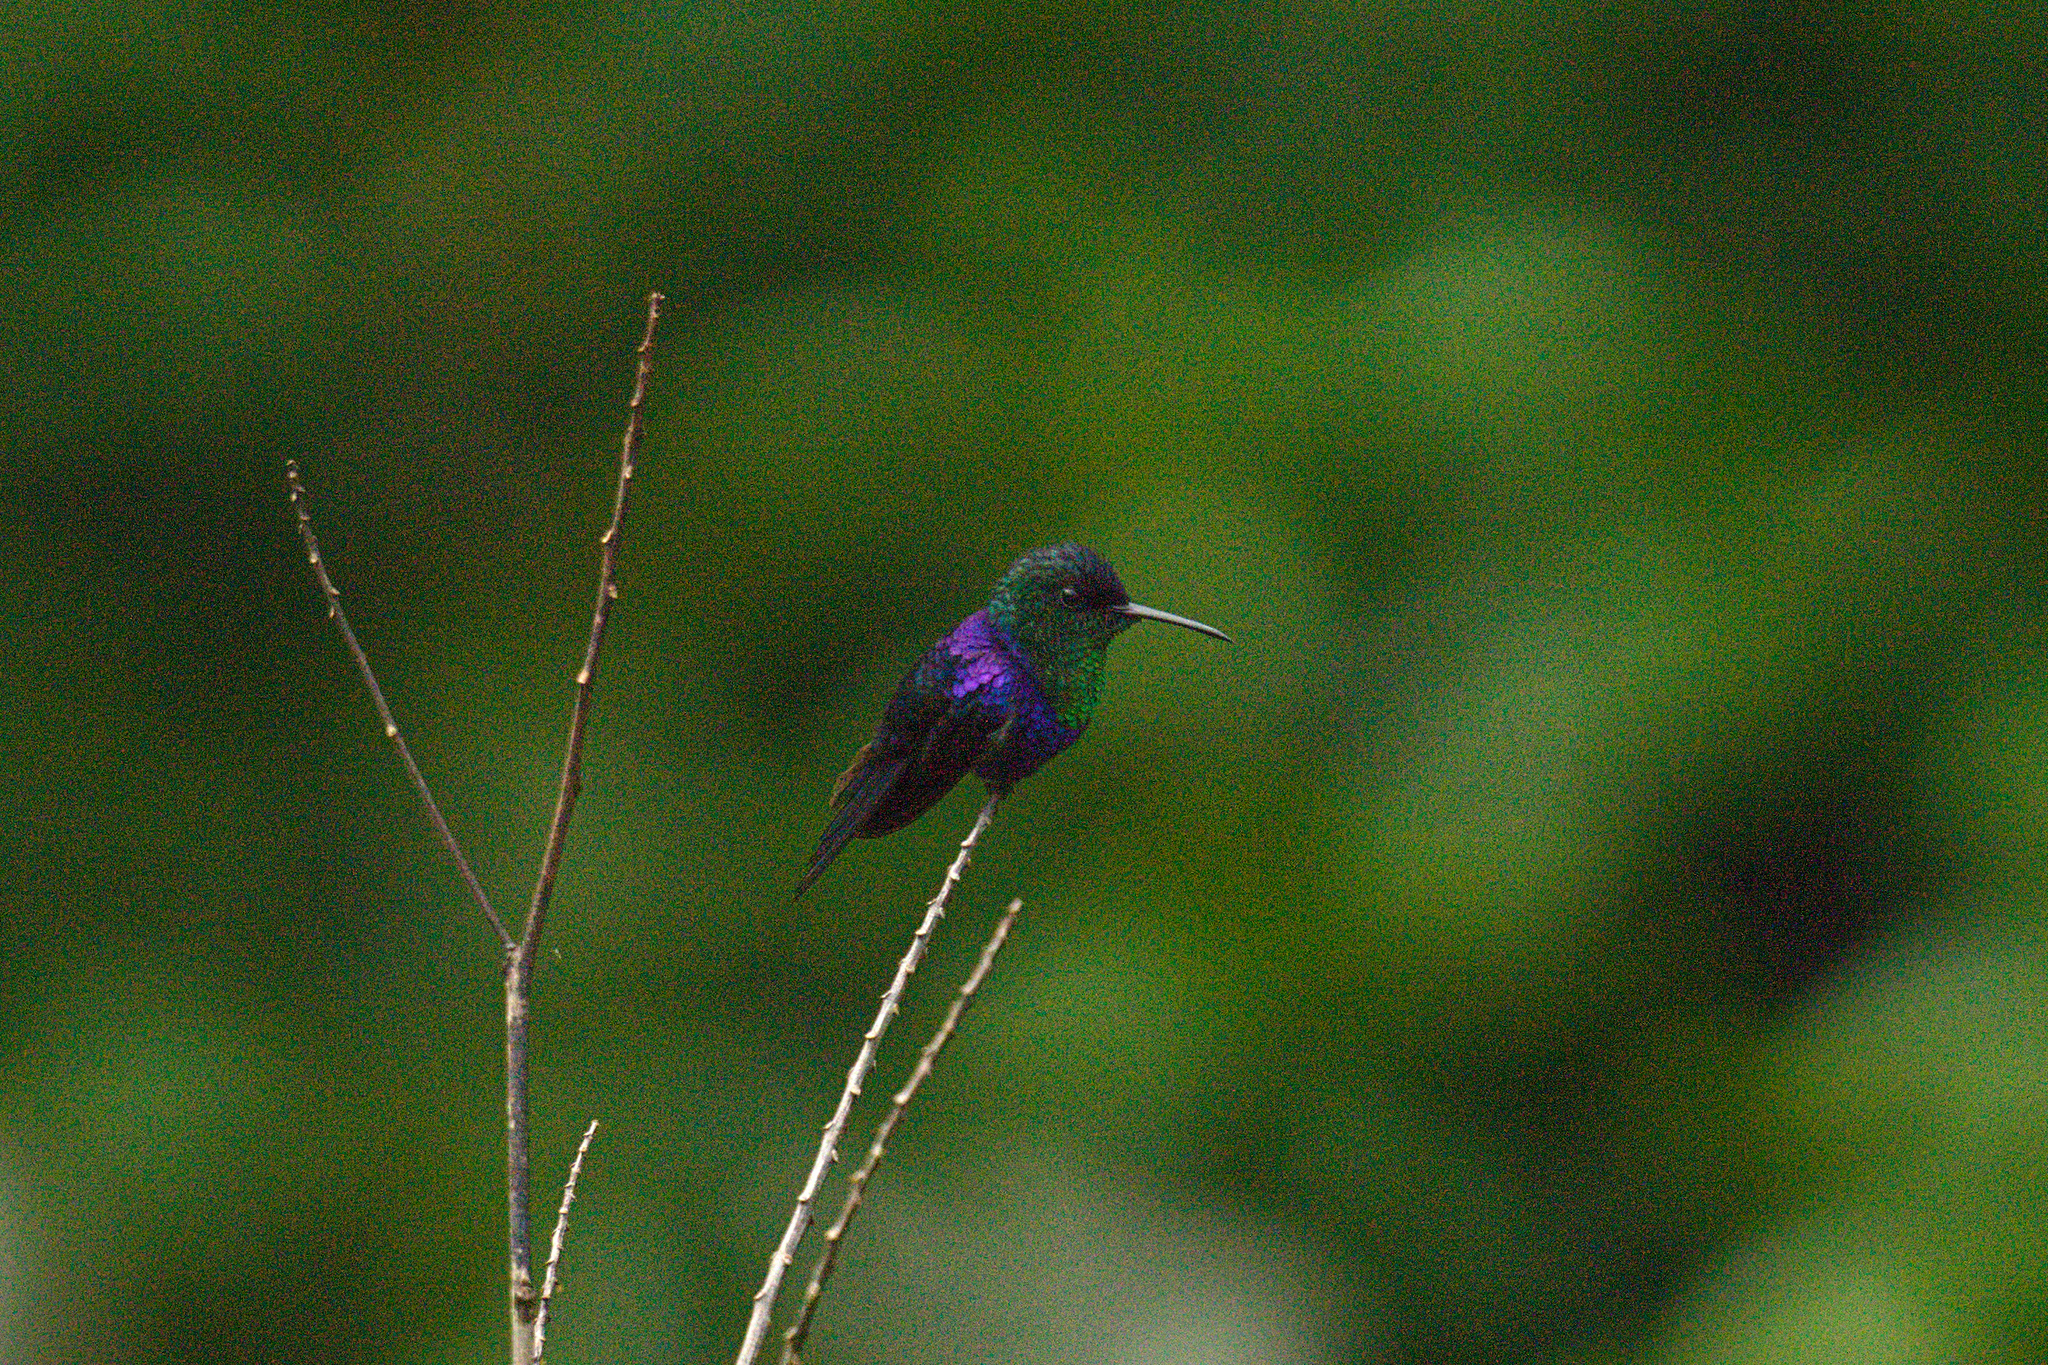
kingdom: Animalia
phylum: Chordata
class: Aves
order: Apodiformes
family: Trochilidae
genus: Thalurania
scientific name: Thalurania colombica
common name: Crowned woodnymph
